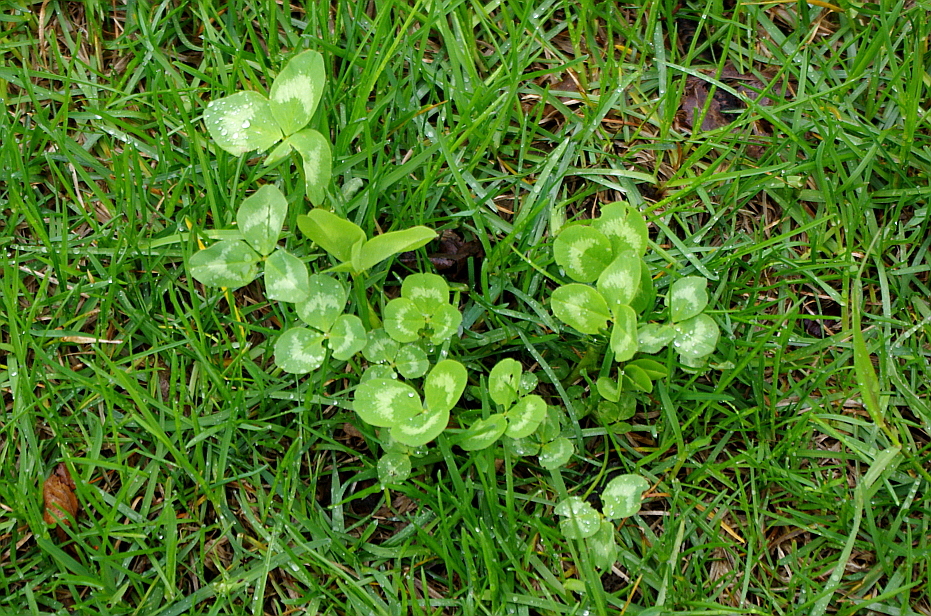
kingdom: Plantae
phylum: Tracheophyta
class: Magnoliopsida
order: Fabales
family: Fabaceae
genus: Trifolium
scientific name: Trifolium pratense
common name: Red clover
